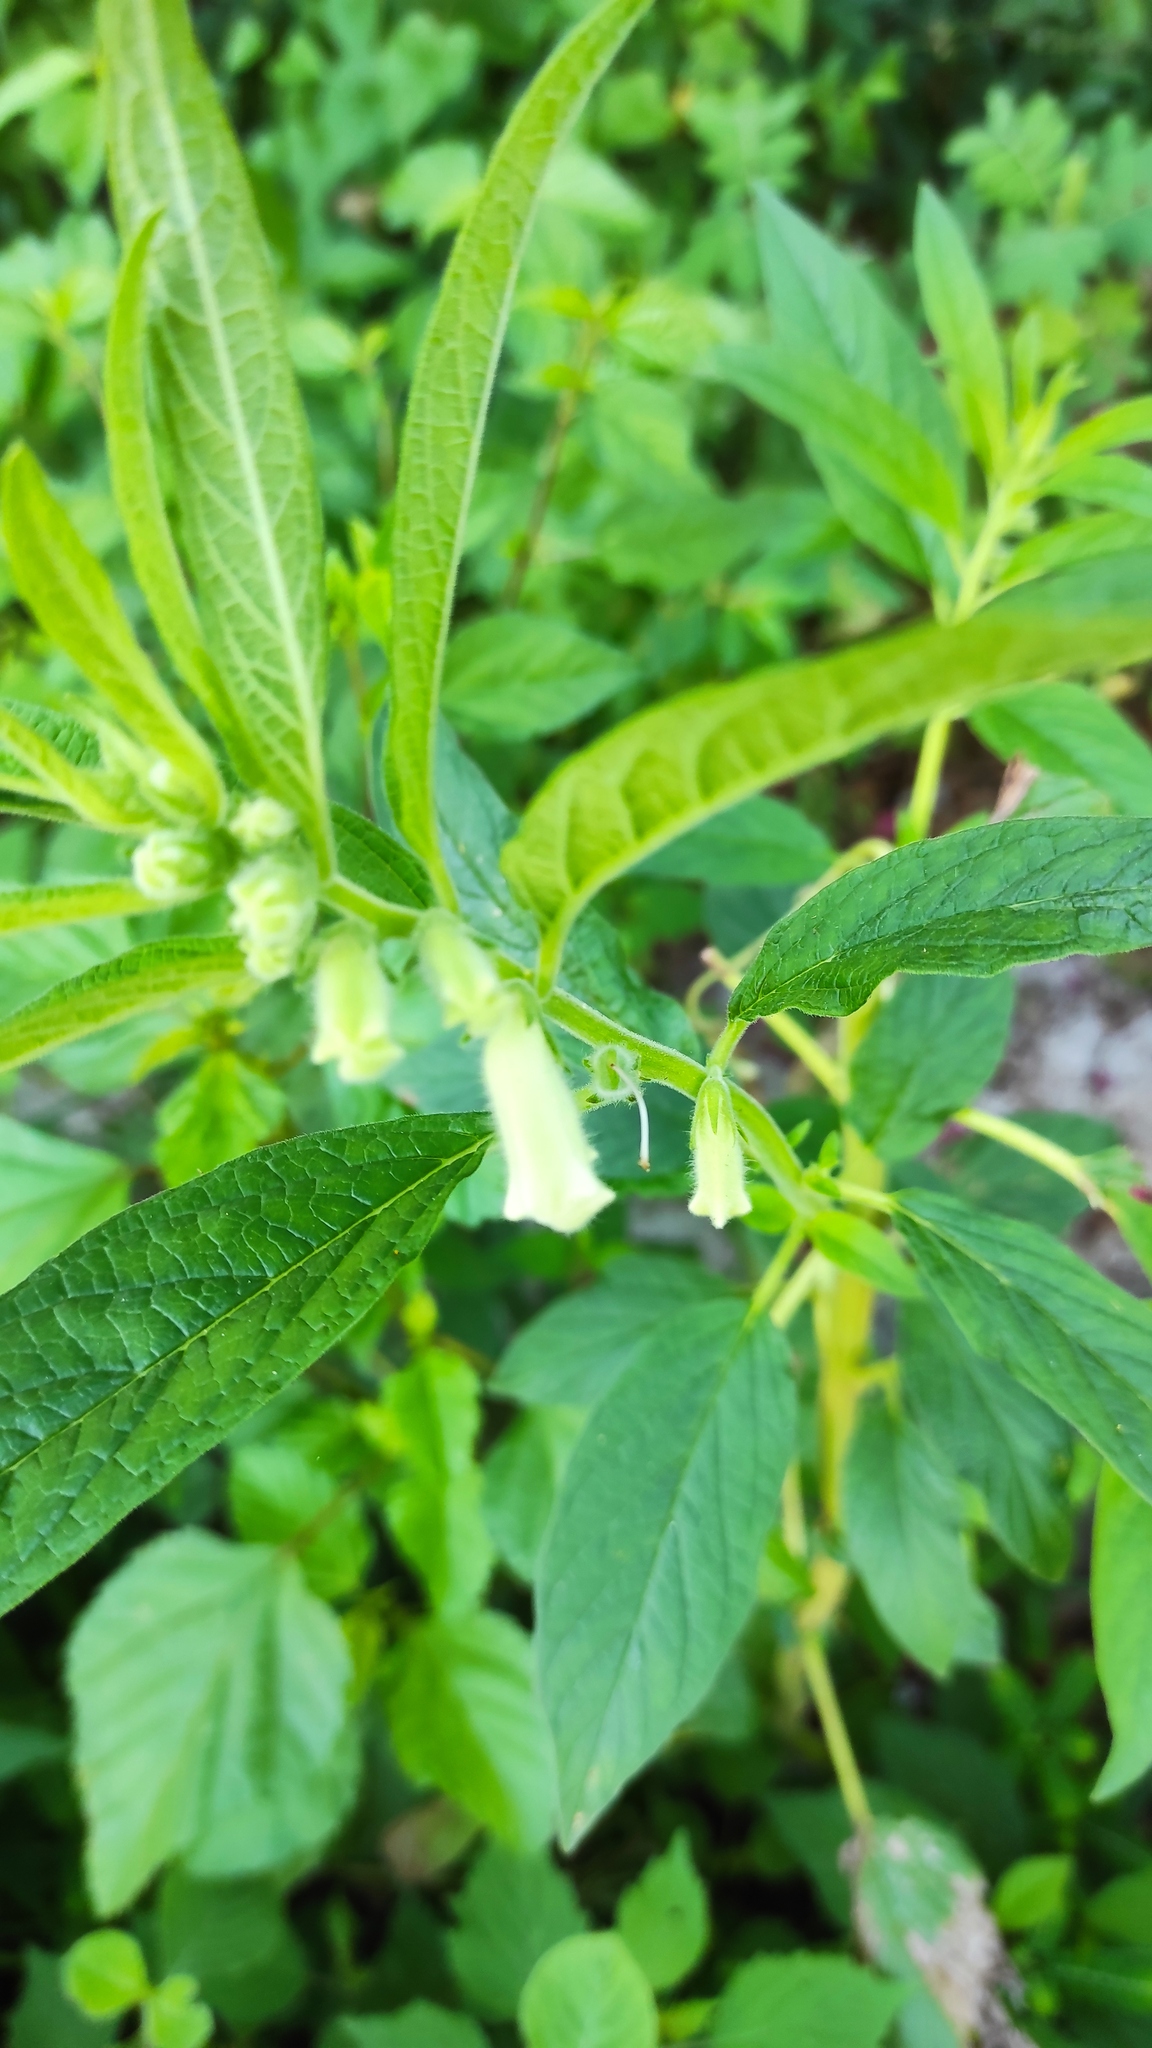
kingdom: Plantae
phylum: Tracheophyta
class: Magnoliopsida
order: Lamiales
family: Pedaliaceae
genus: Sesamum
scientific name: Sesamum indicum
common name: Sesame
